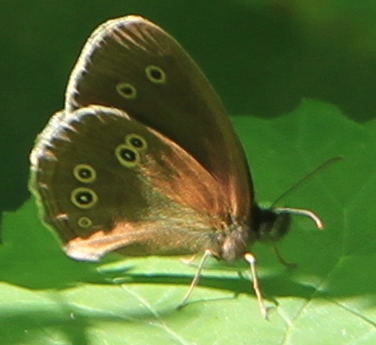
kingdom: Animalia
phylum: Arthropoda
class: Insecta
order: Lepidoptera
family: Nymphalidae
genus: Aphantopus
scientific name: Aphantopus hyperantus
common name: Ringlet
